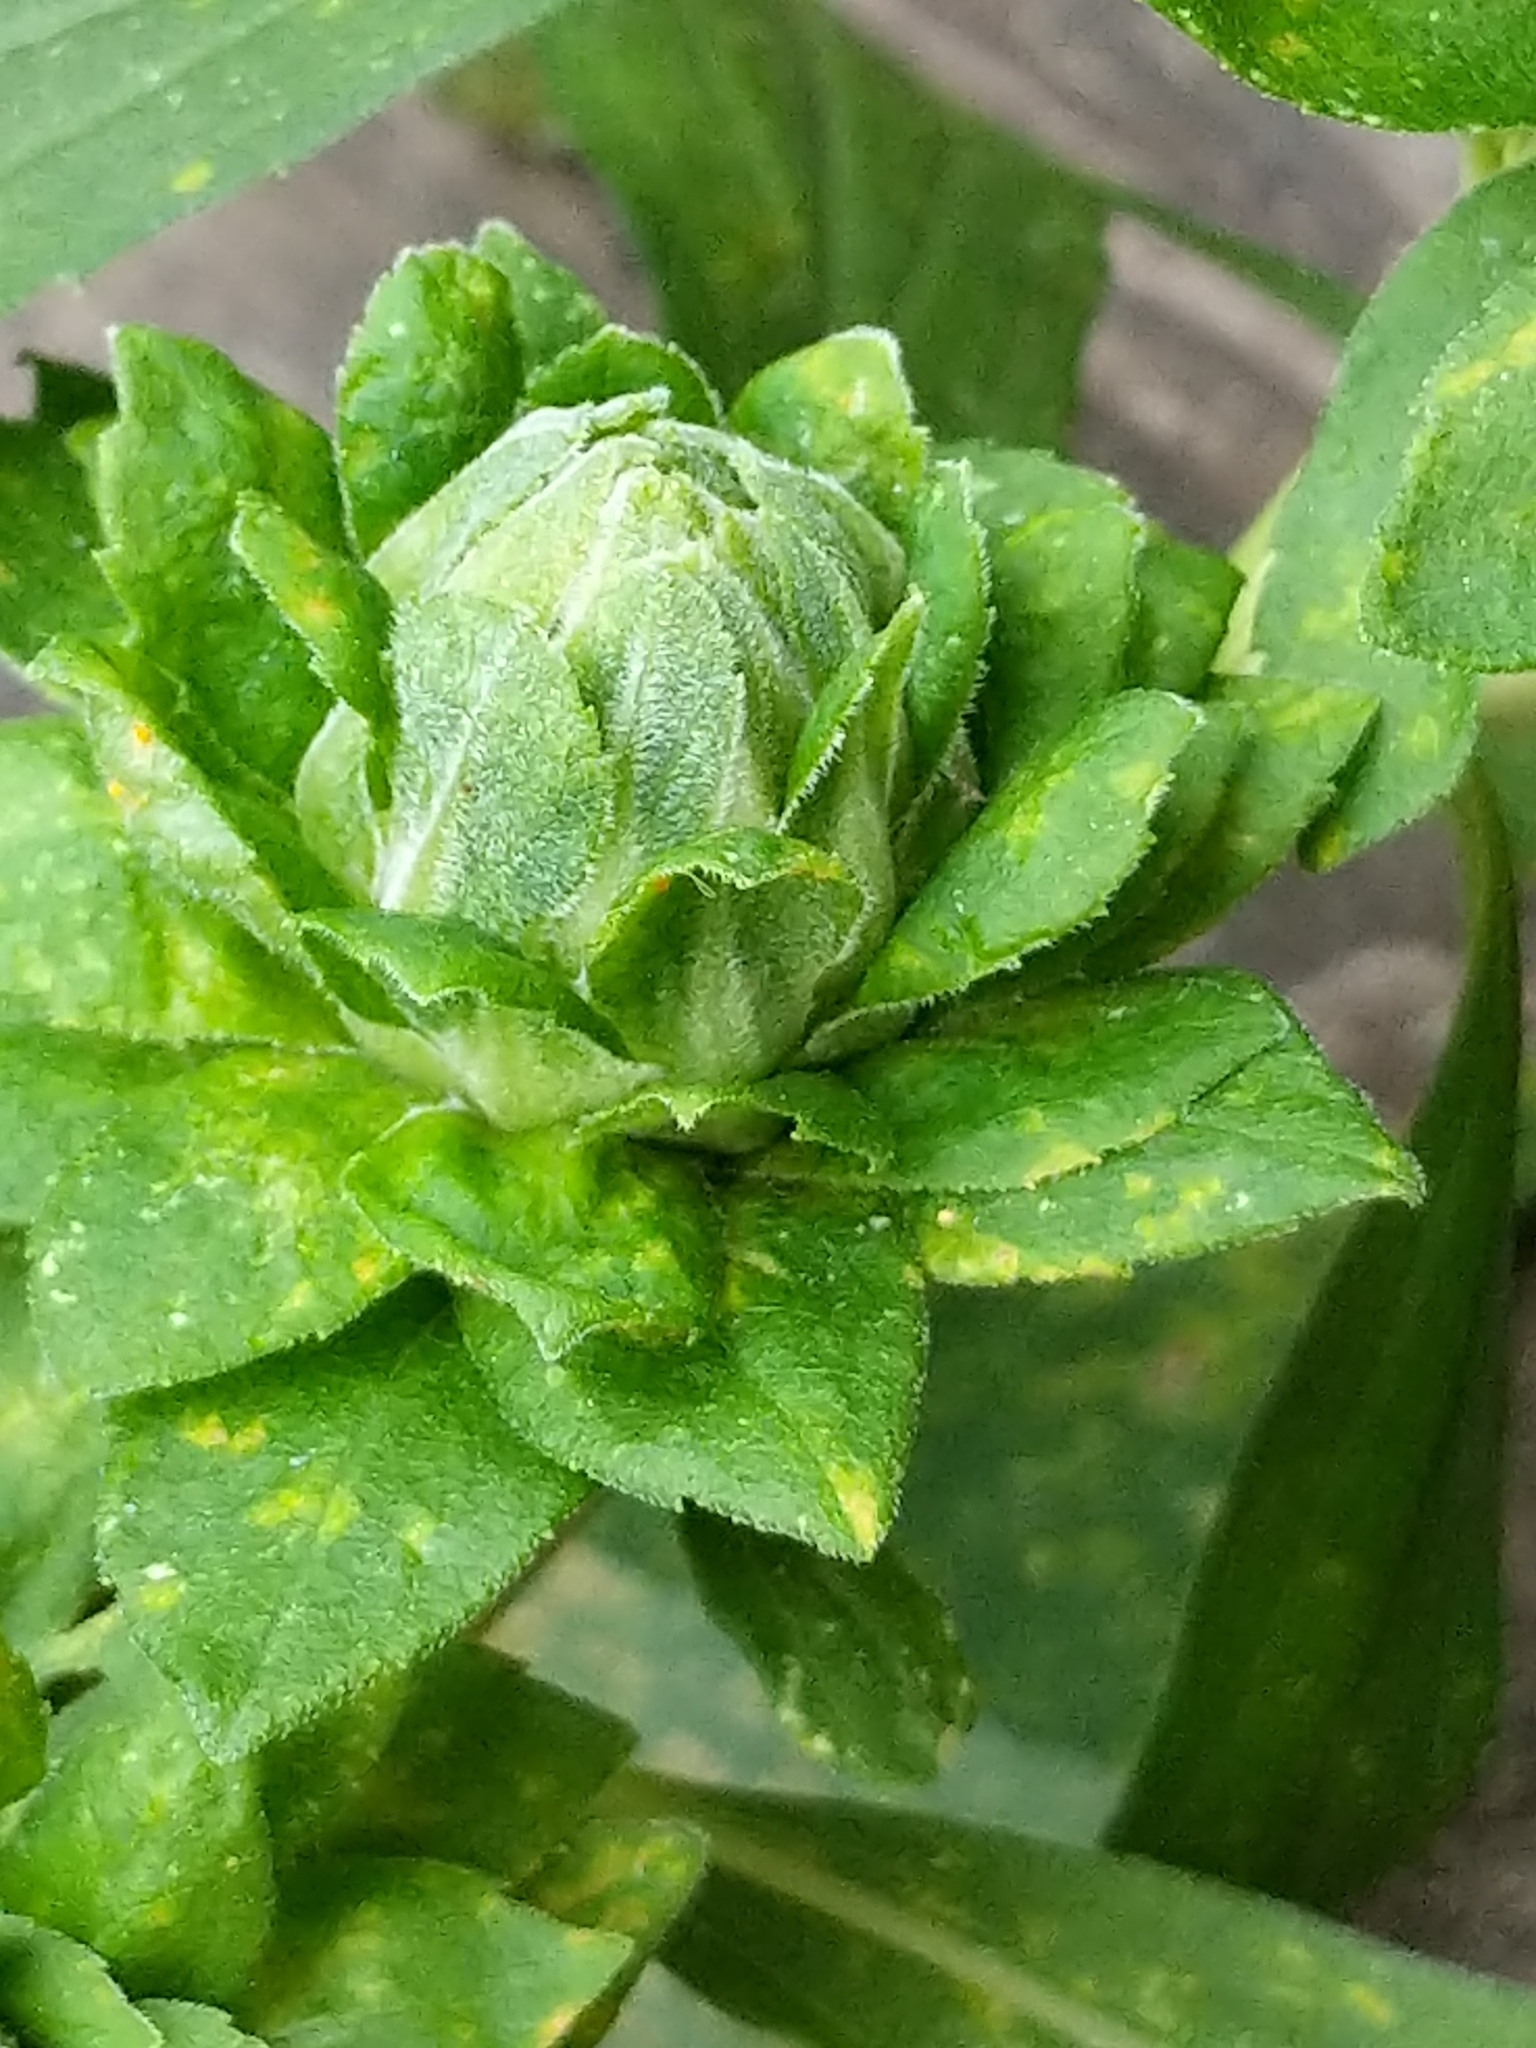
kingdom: Animalia
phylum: Arthropoda
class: Insecta
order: Diptera
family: Tephritidae
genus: Procecidochares
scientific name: Procecidochares atra
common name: Goldenrod brussels sprout gall fly
